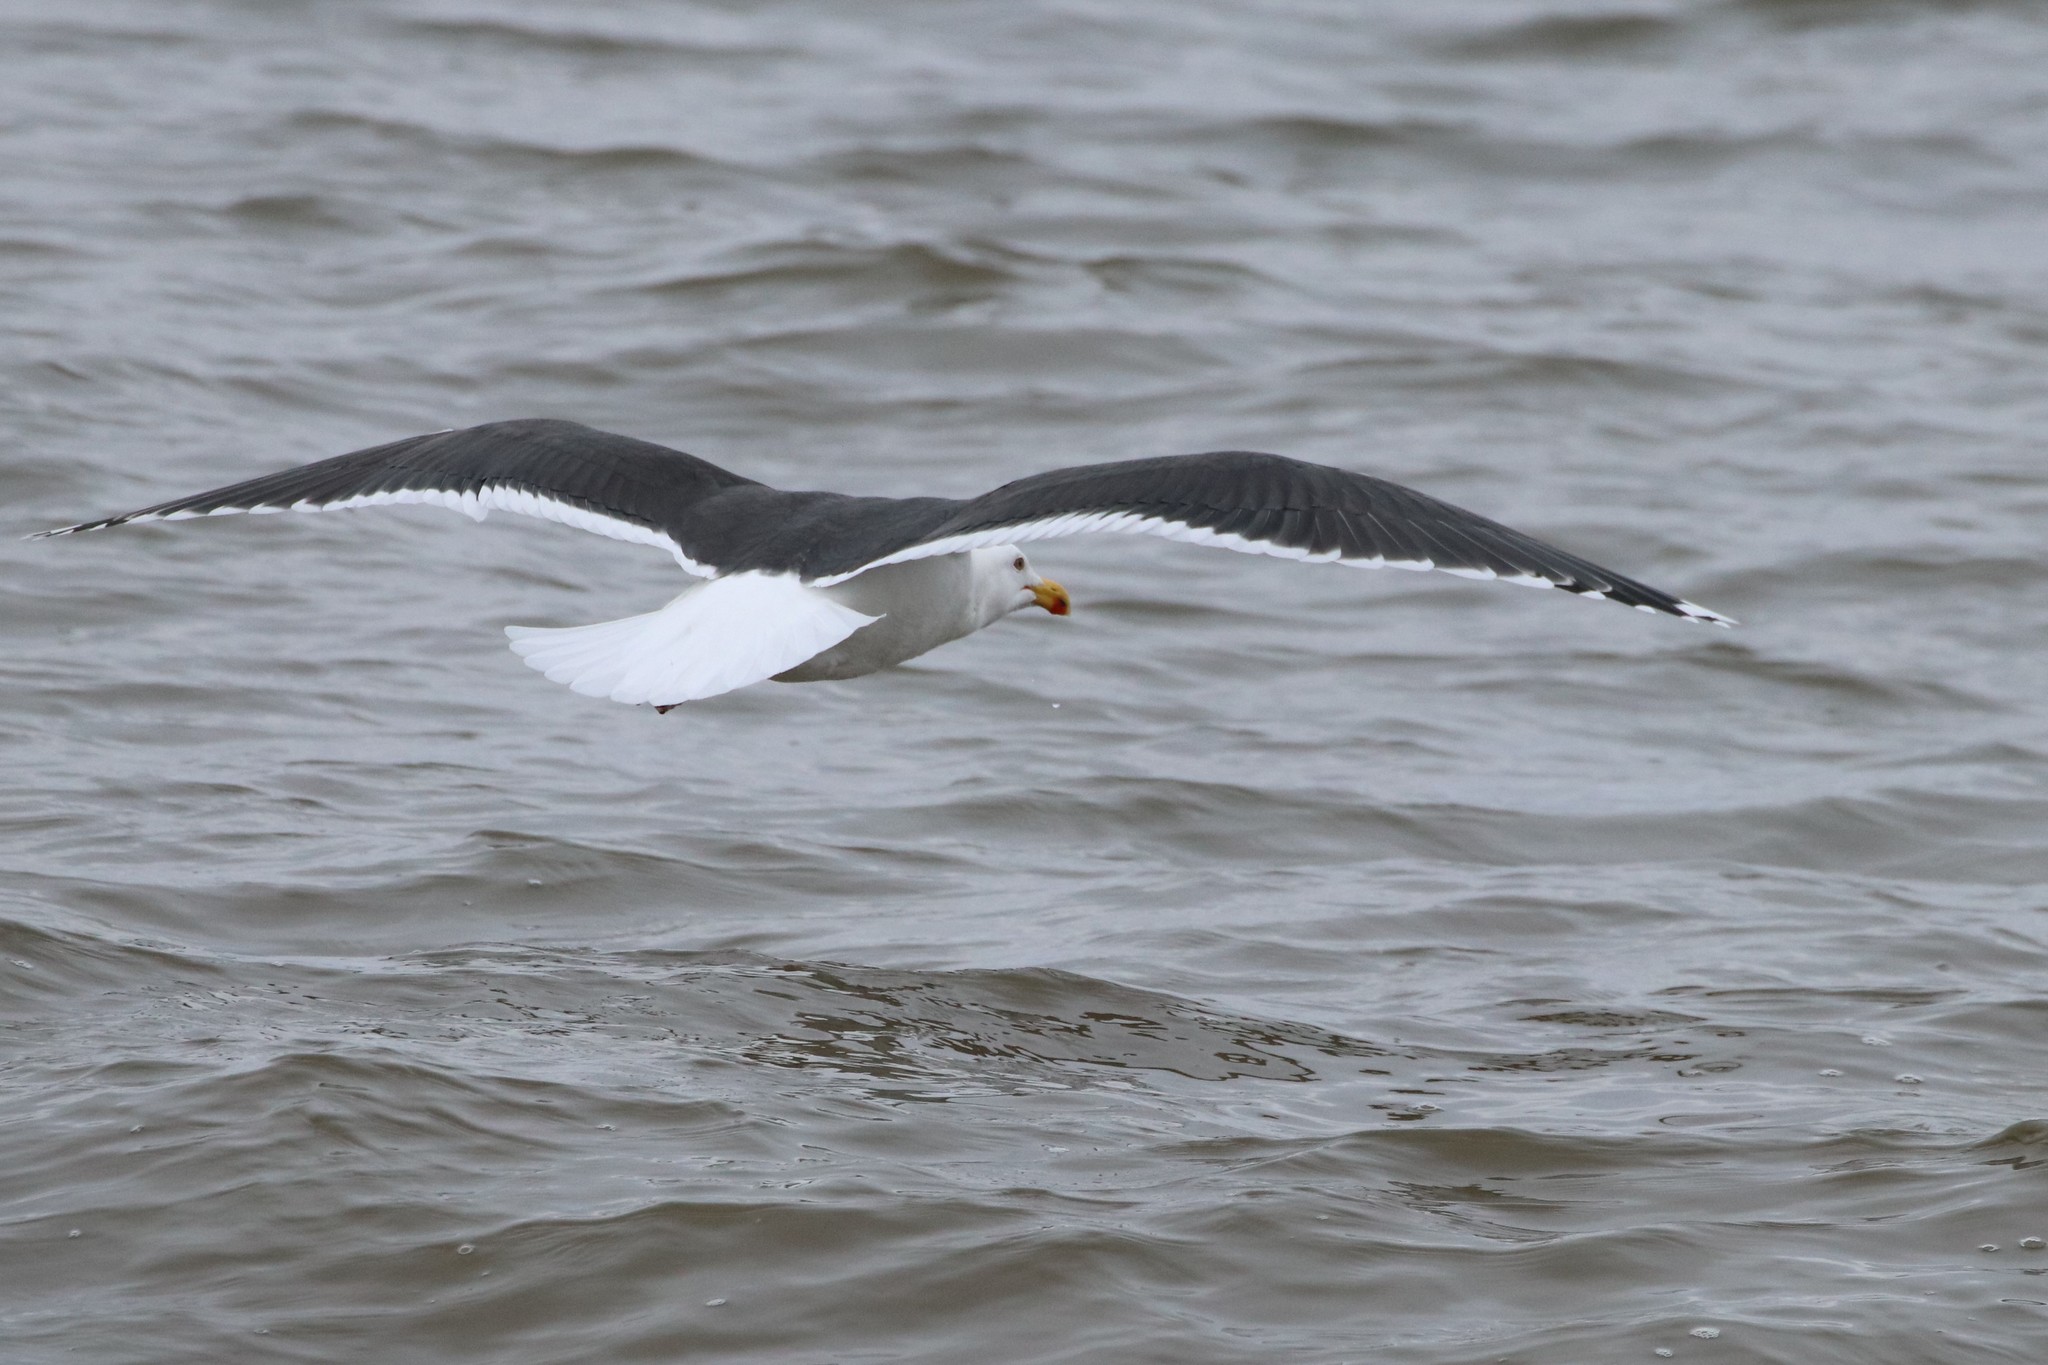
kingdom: Animalia
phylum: Chordata
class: Aves
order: Charadriiformes
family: Laridae
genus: Larus
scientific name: Larus marinus
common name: Great black-backed gull
